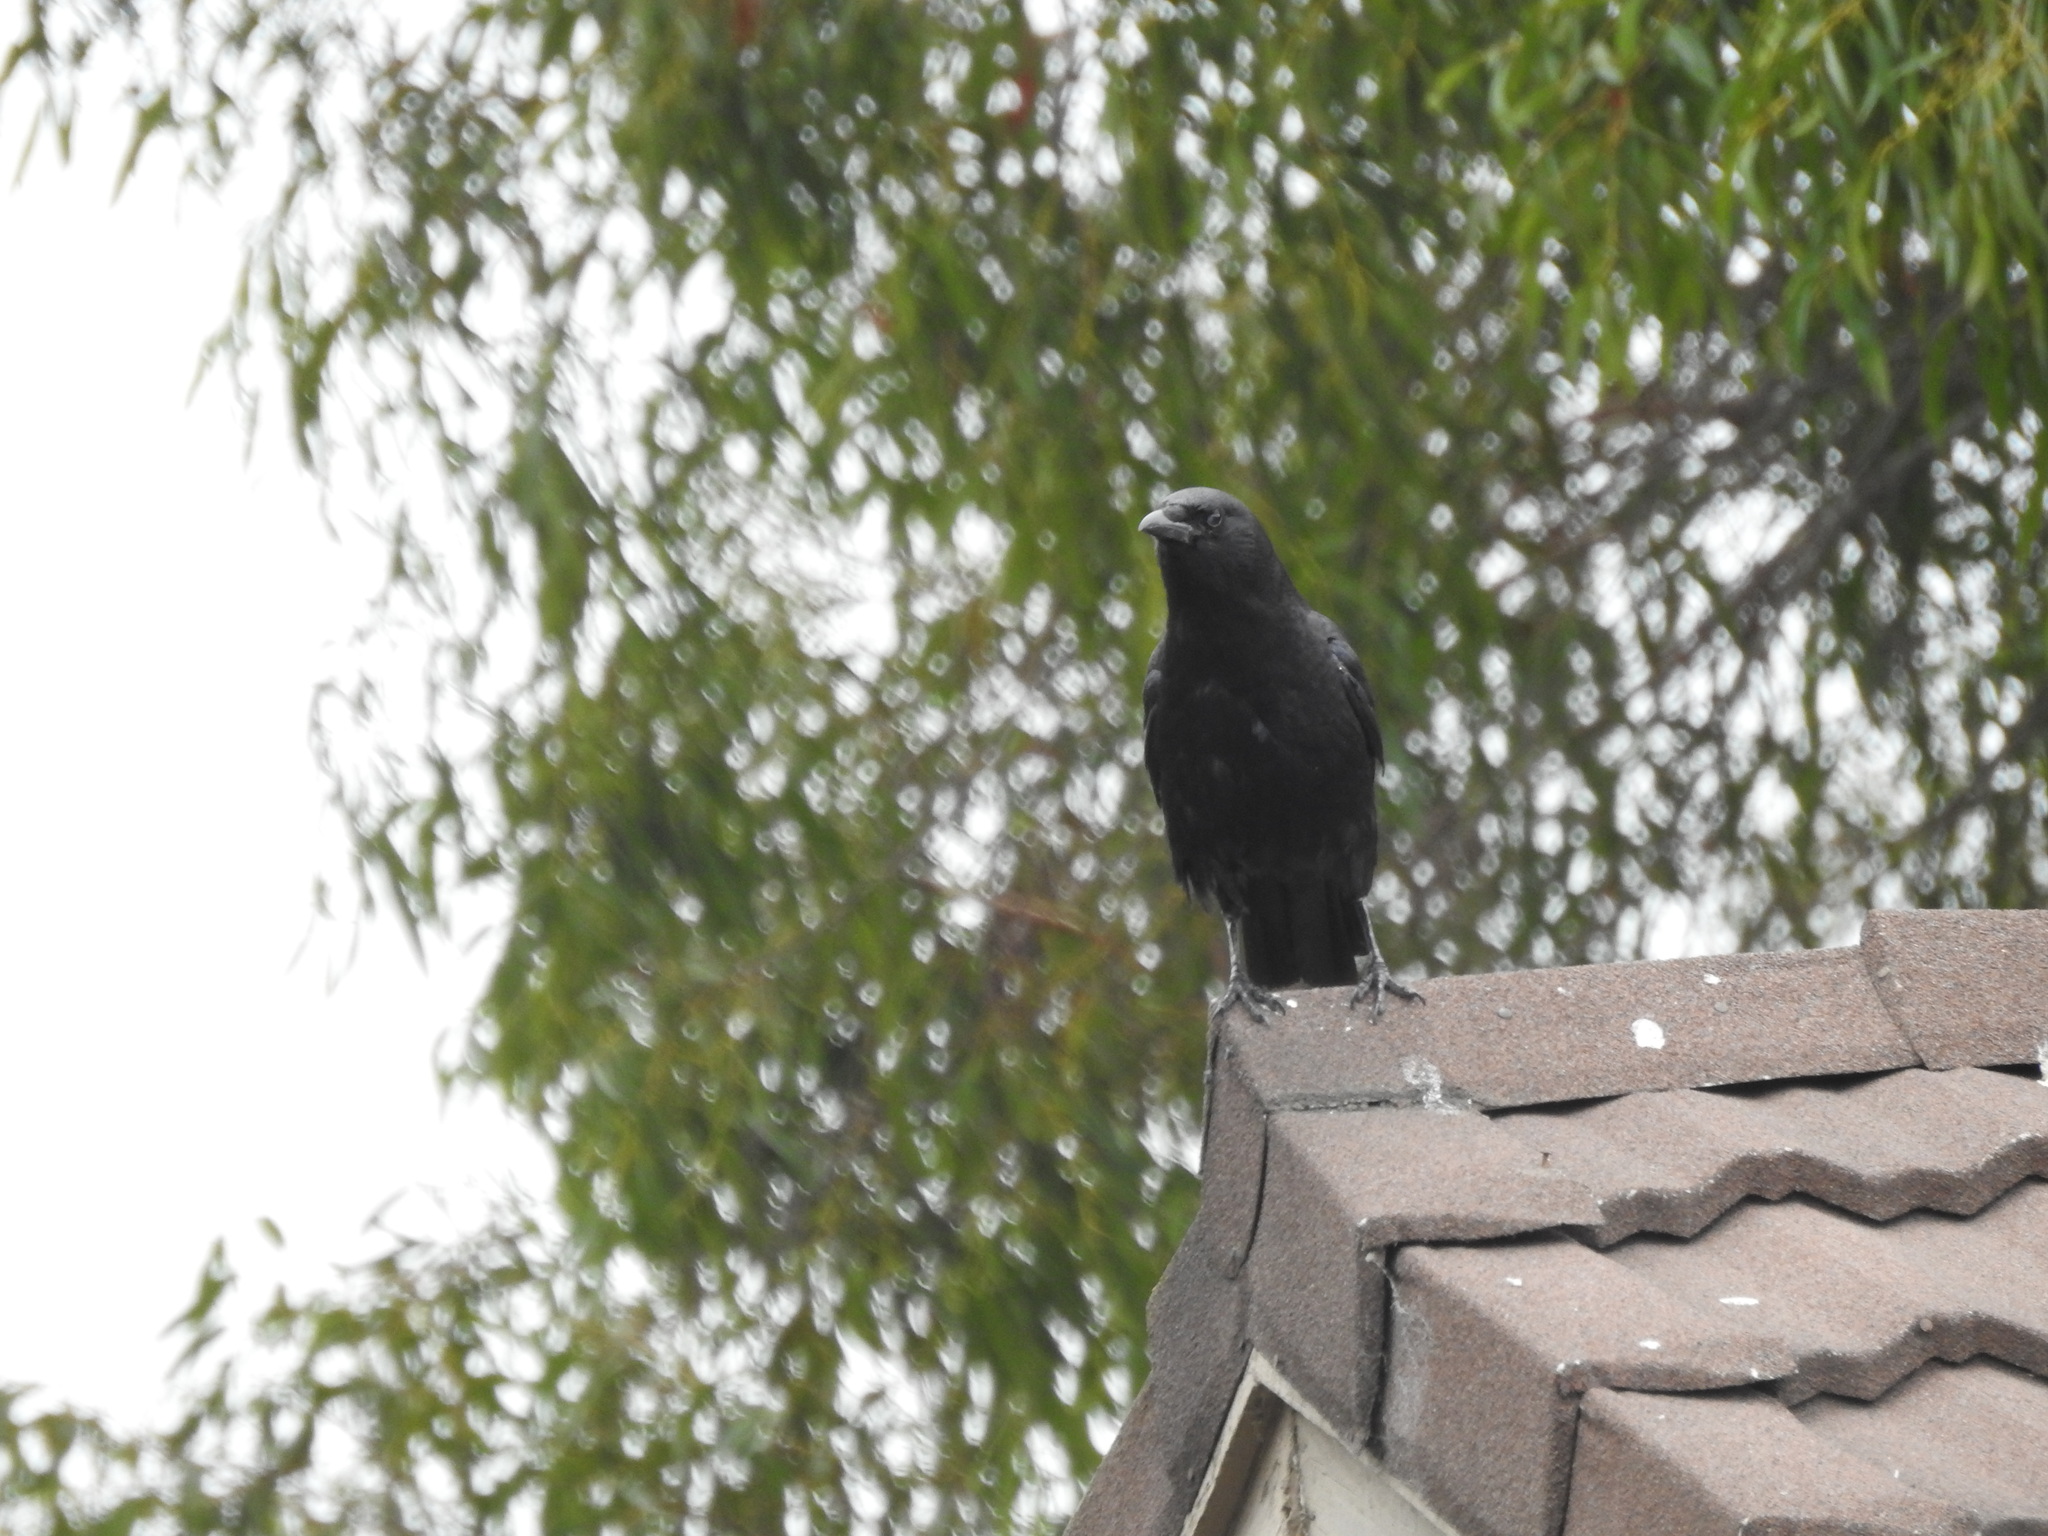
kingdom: Animalia
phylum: Chordata
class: Aves
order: Passeriformes
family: Corvidae
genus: Corvus
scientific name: Corvus brachyrhynchos
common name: American crow
